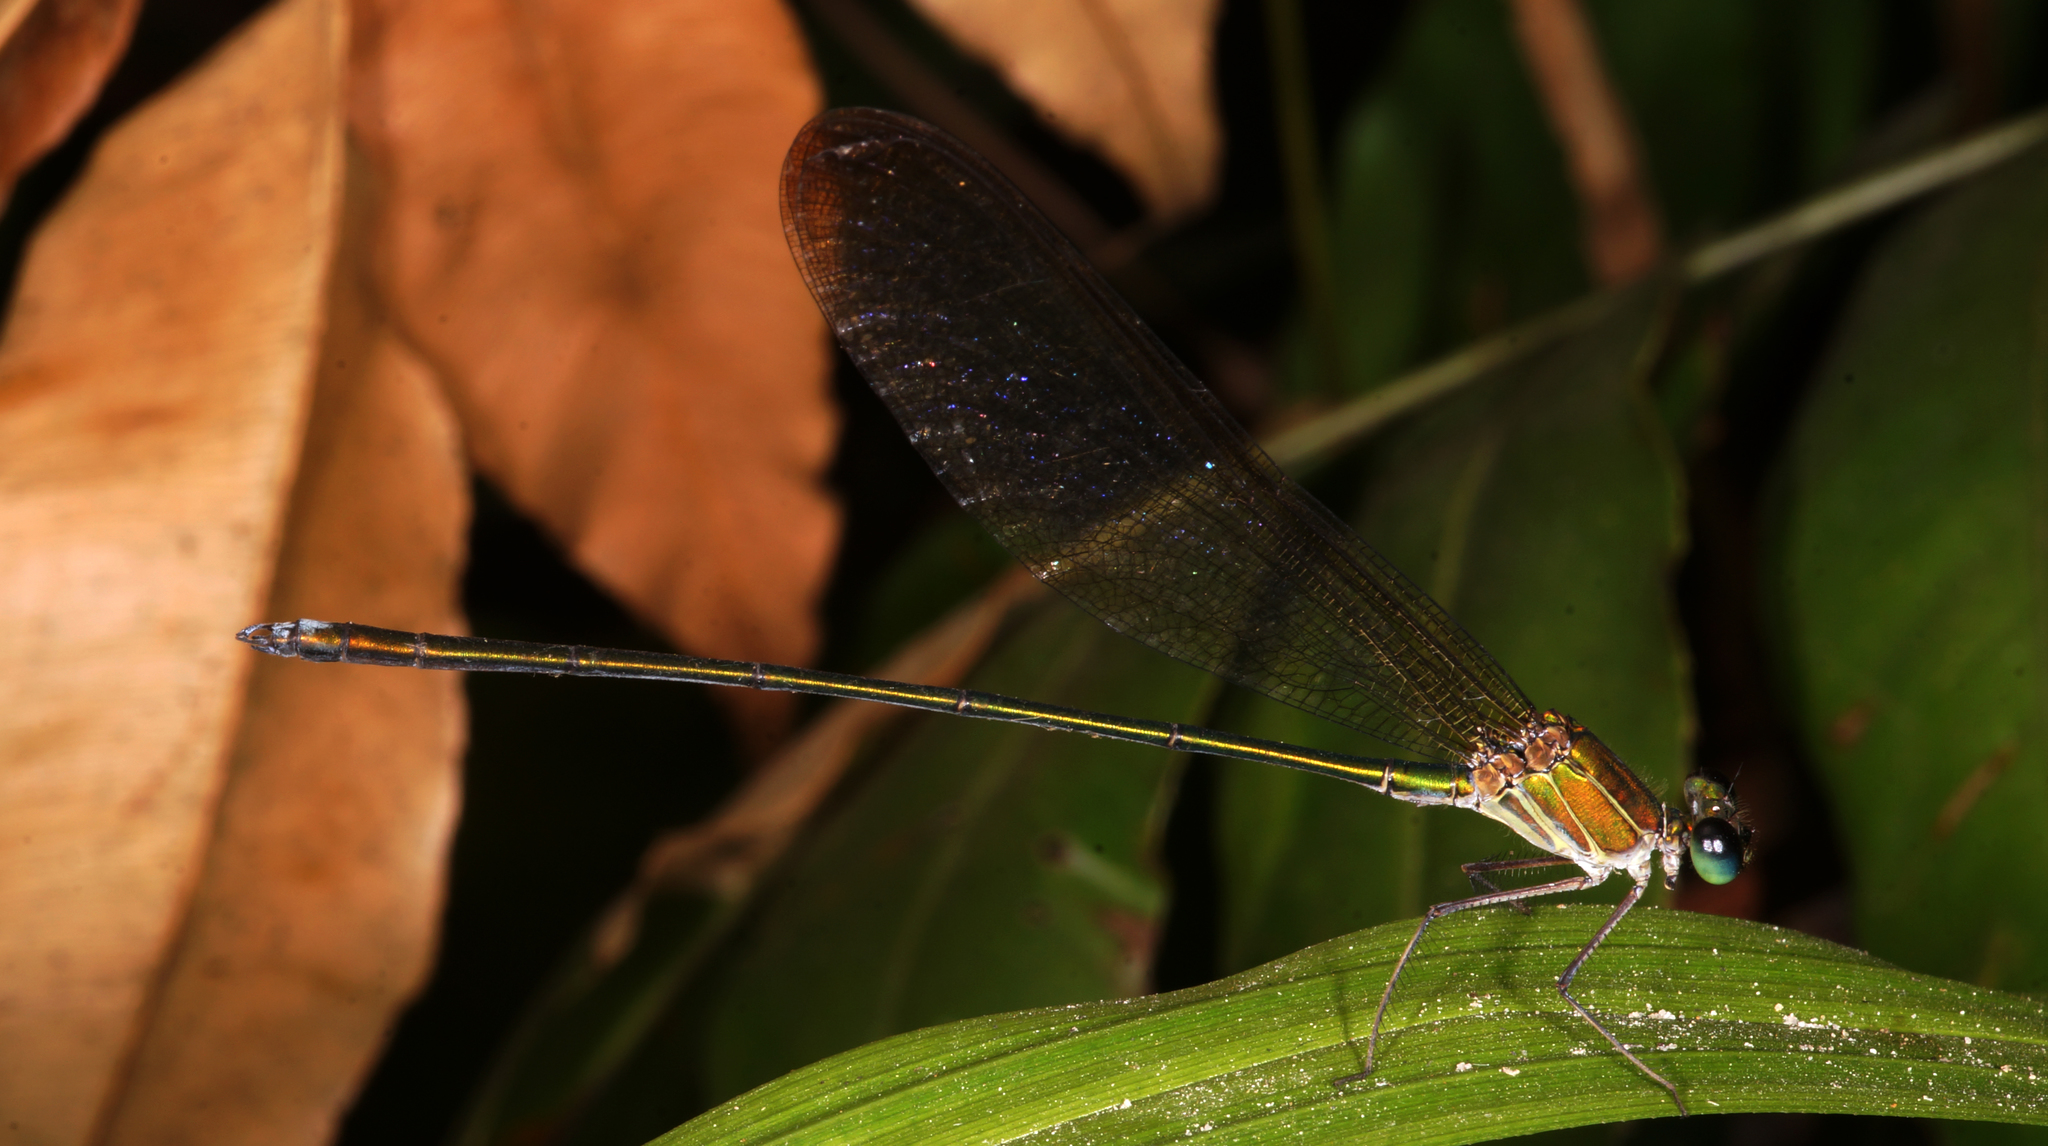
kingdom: Animalia
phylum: Arthropoda
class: Insecta
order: Odonata
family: Calopterygidae
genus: Vestalis
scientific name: Vestalis gracilis
